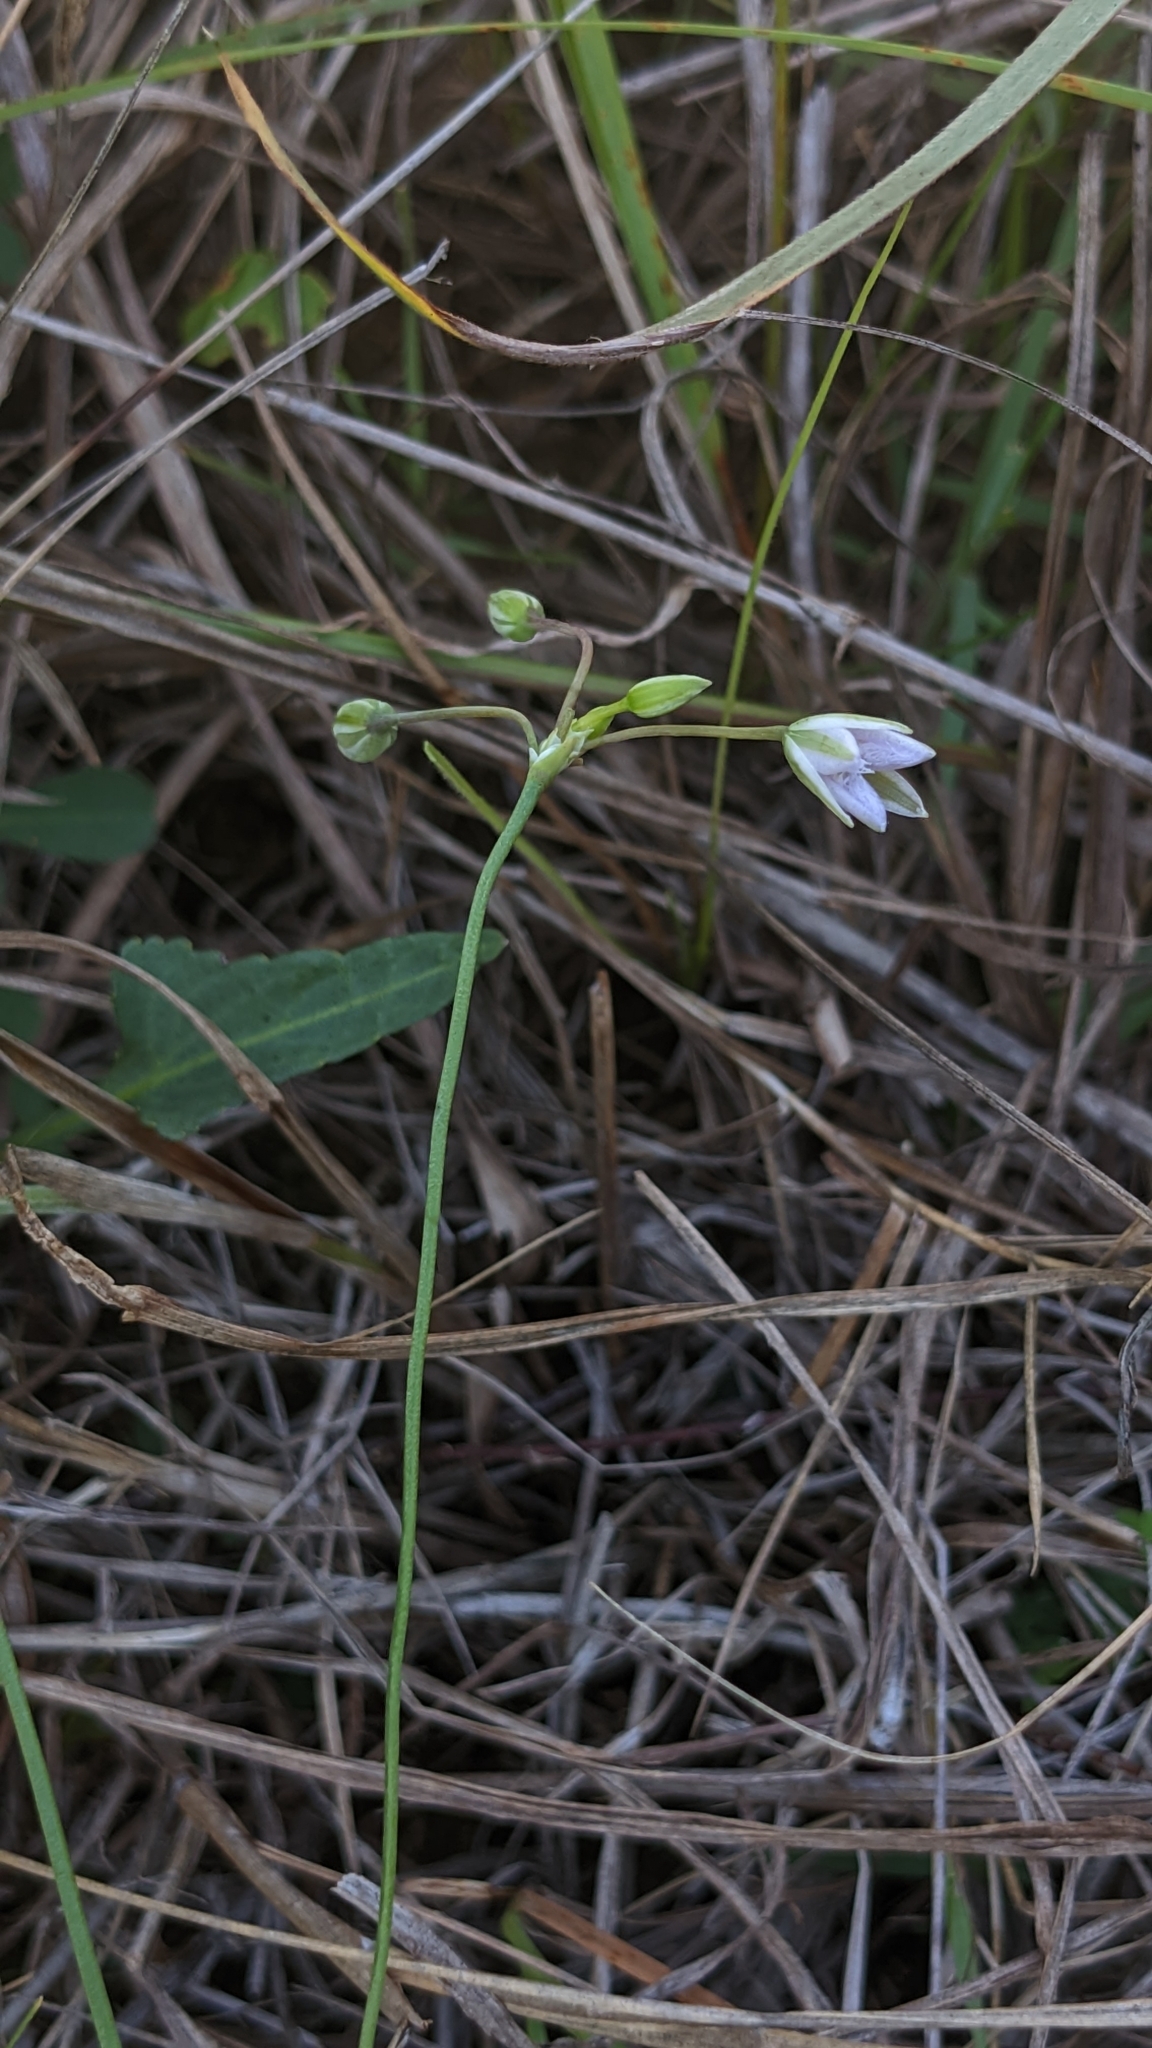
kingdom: Plantae
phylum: Tracheophyta
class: Liliopsida
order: Asparagales
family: Asparagaceae
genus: Thysanotus
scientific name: Thysanotus chinensis
